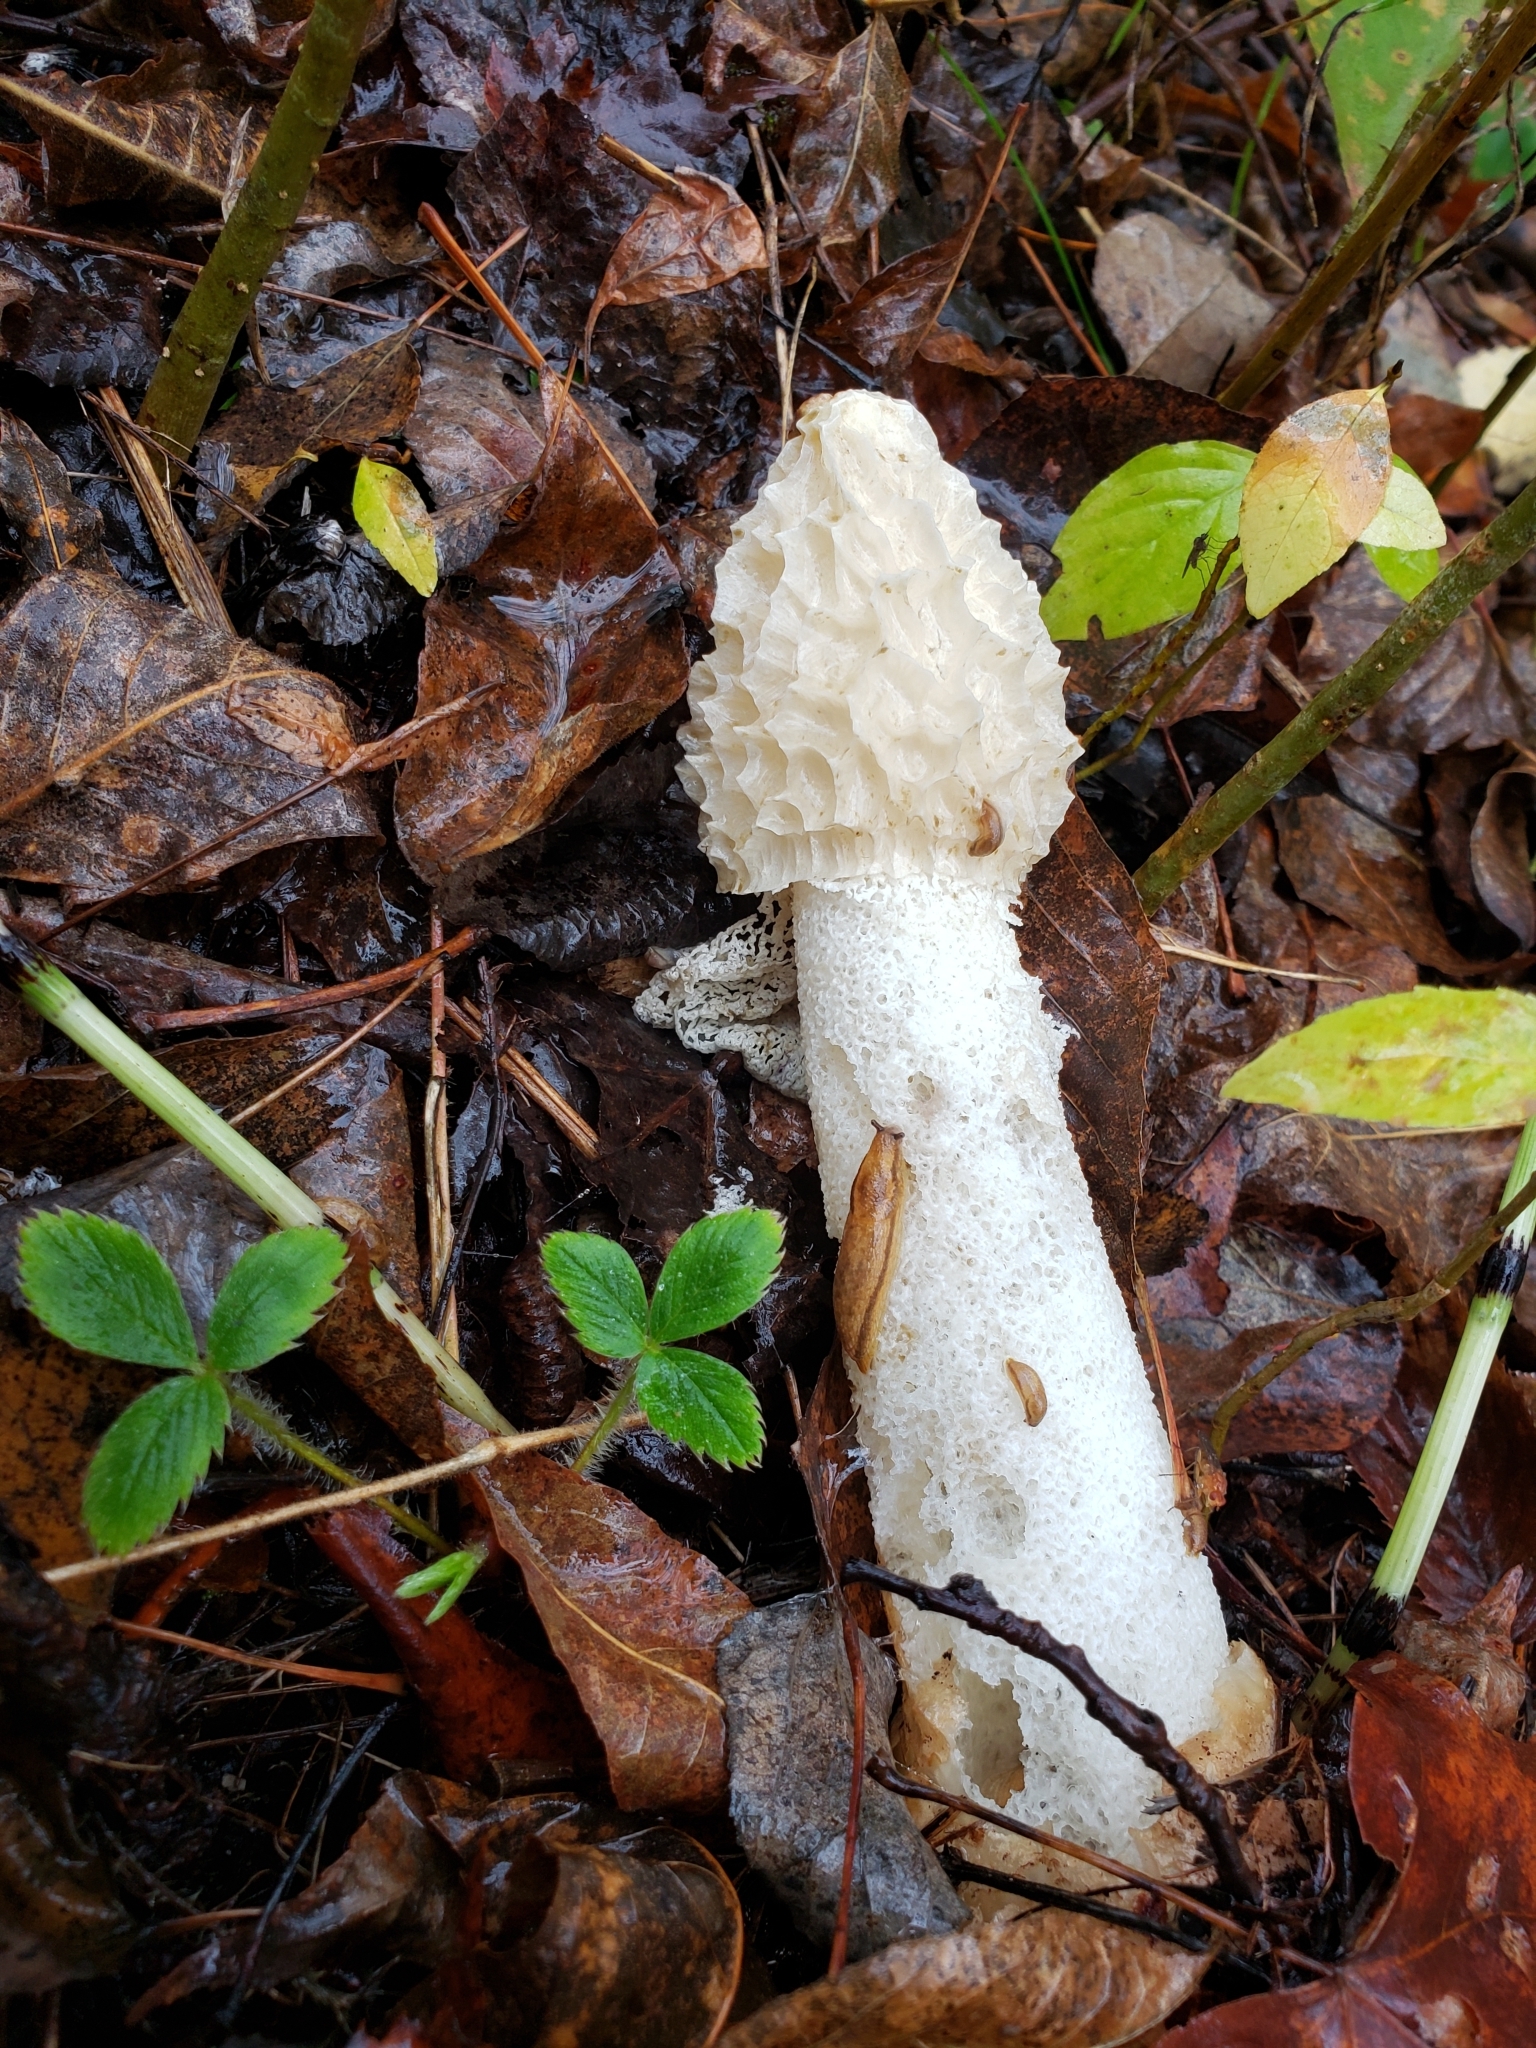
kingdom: Fungi
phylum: Basidiomycota
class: Agaricomycetes
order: Phallales
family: Phallaceae
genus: Phallus
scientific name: Phallus indusiatus
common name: Bridal veil stinkhorn
